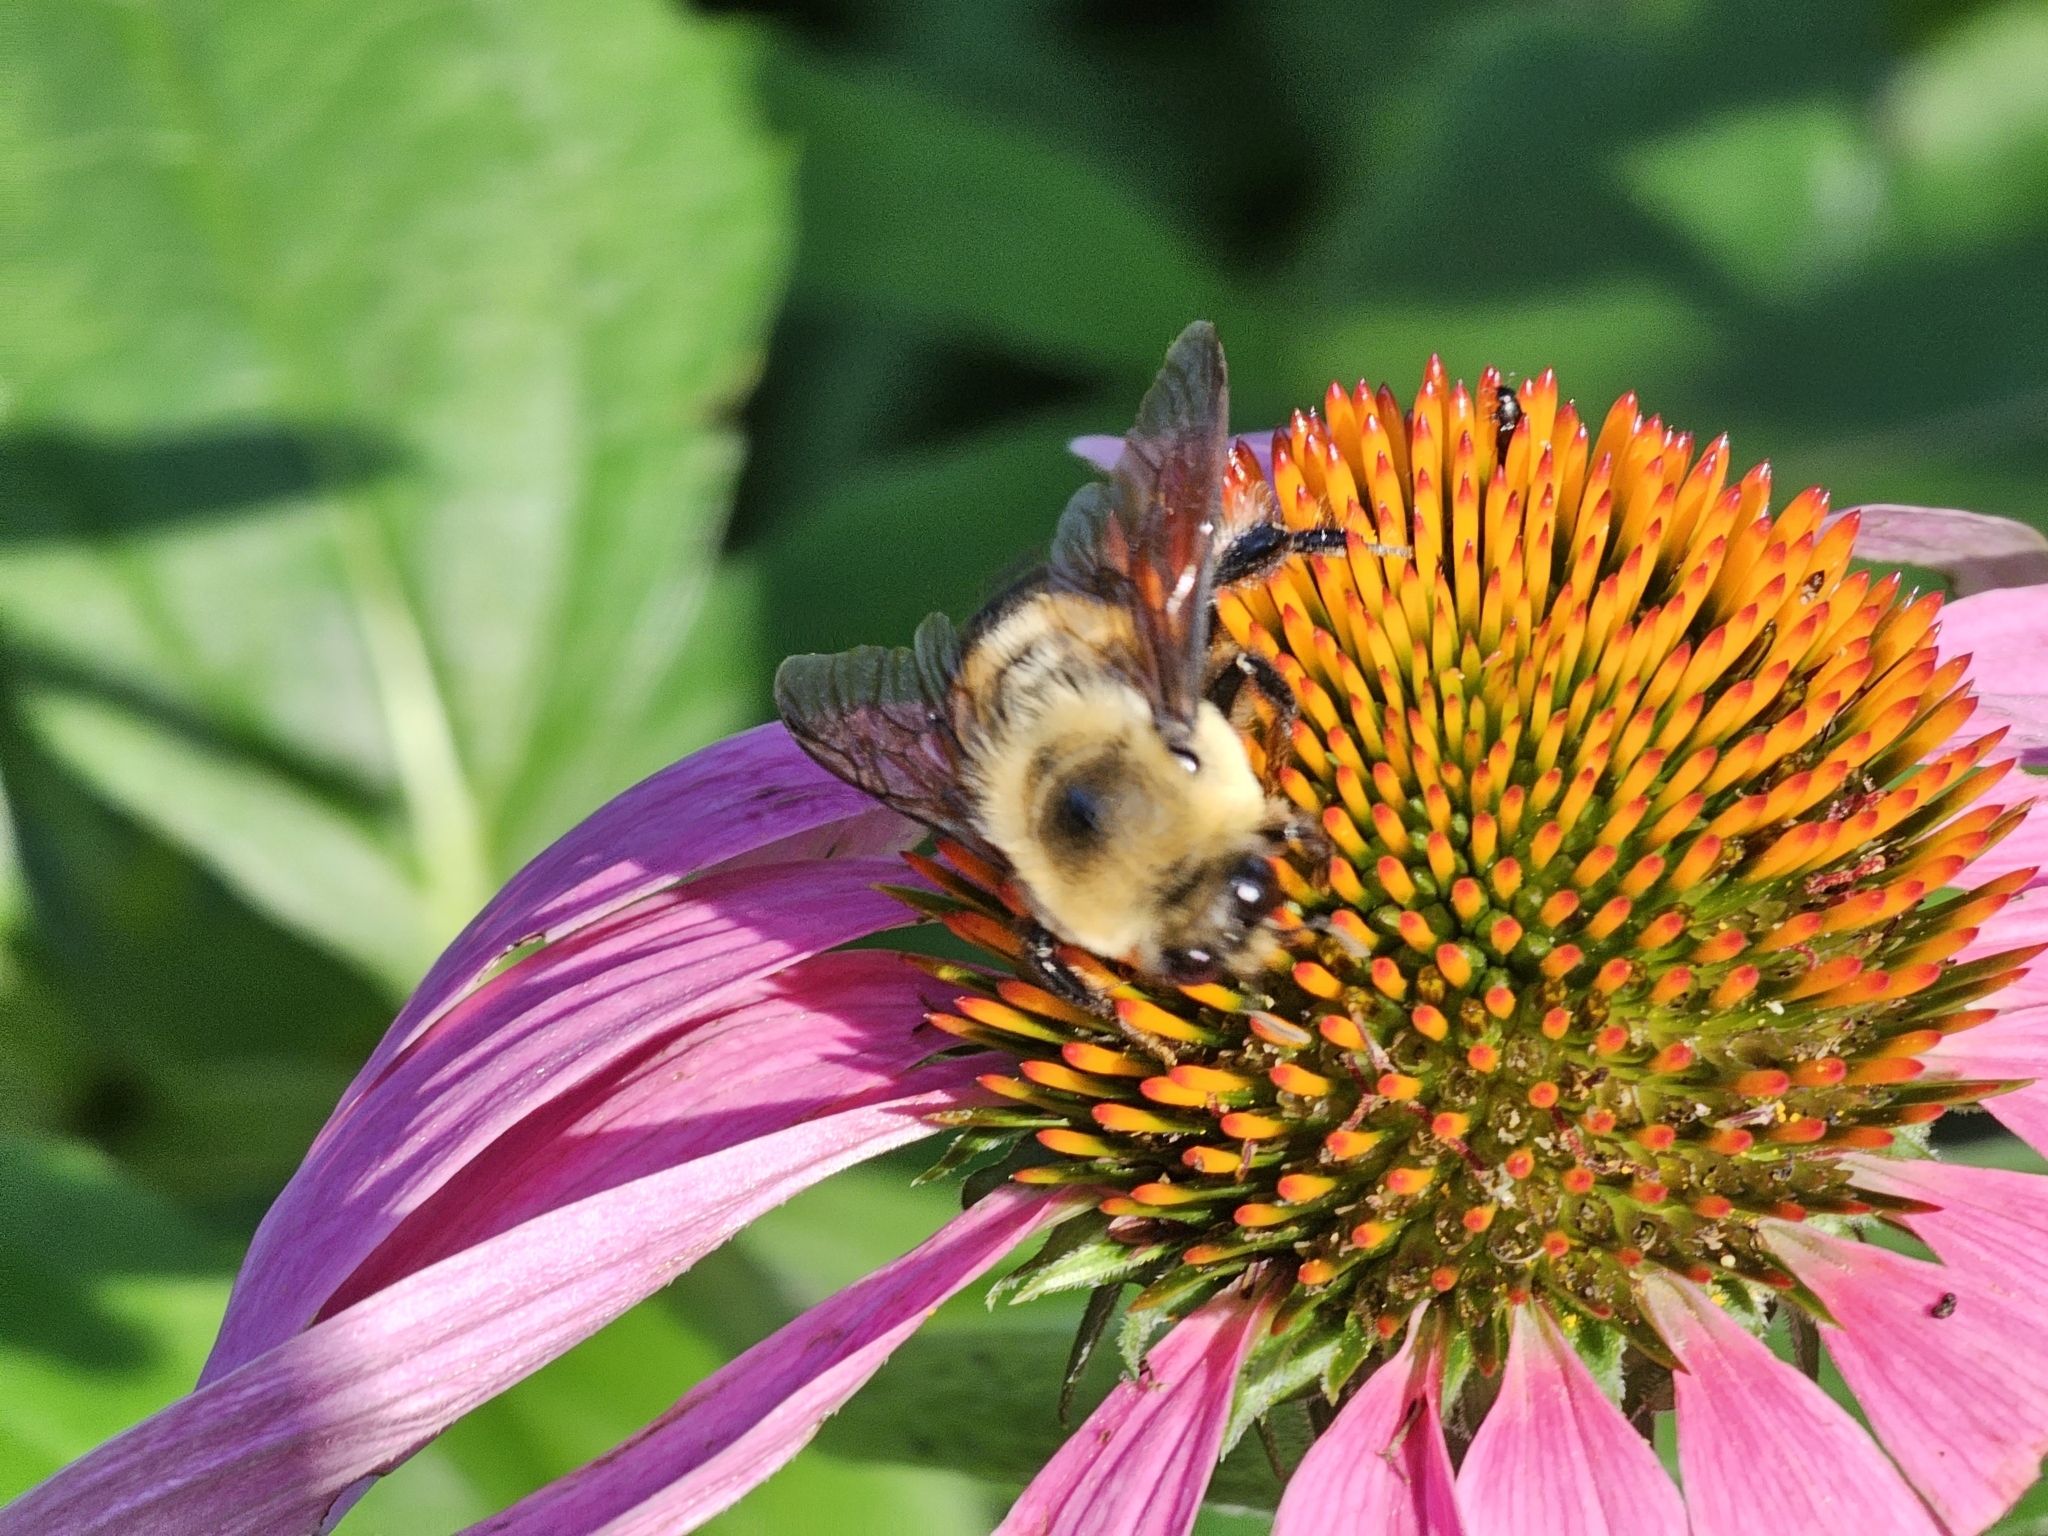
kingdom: Animalia
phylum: Arthropoda
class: Insecta
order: Hymenoptera
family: Apidae
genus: Bombus
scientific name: Bombus griseocollis
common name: Brown-belted bumble bee
